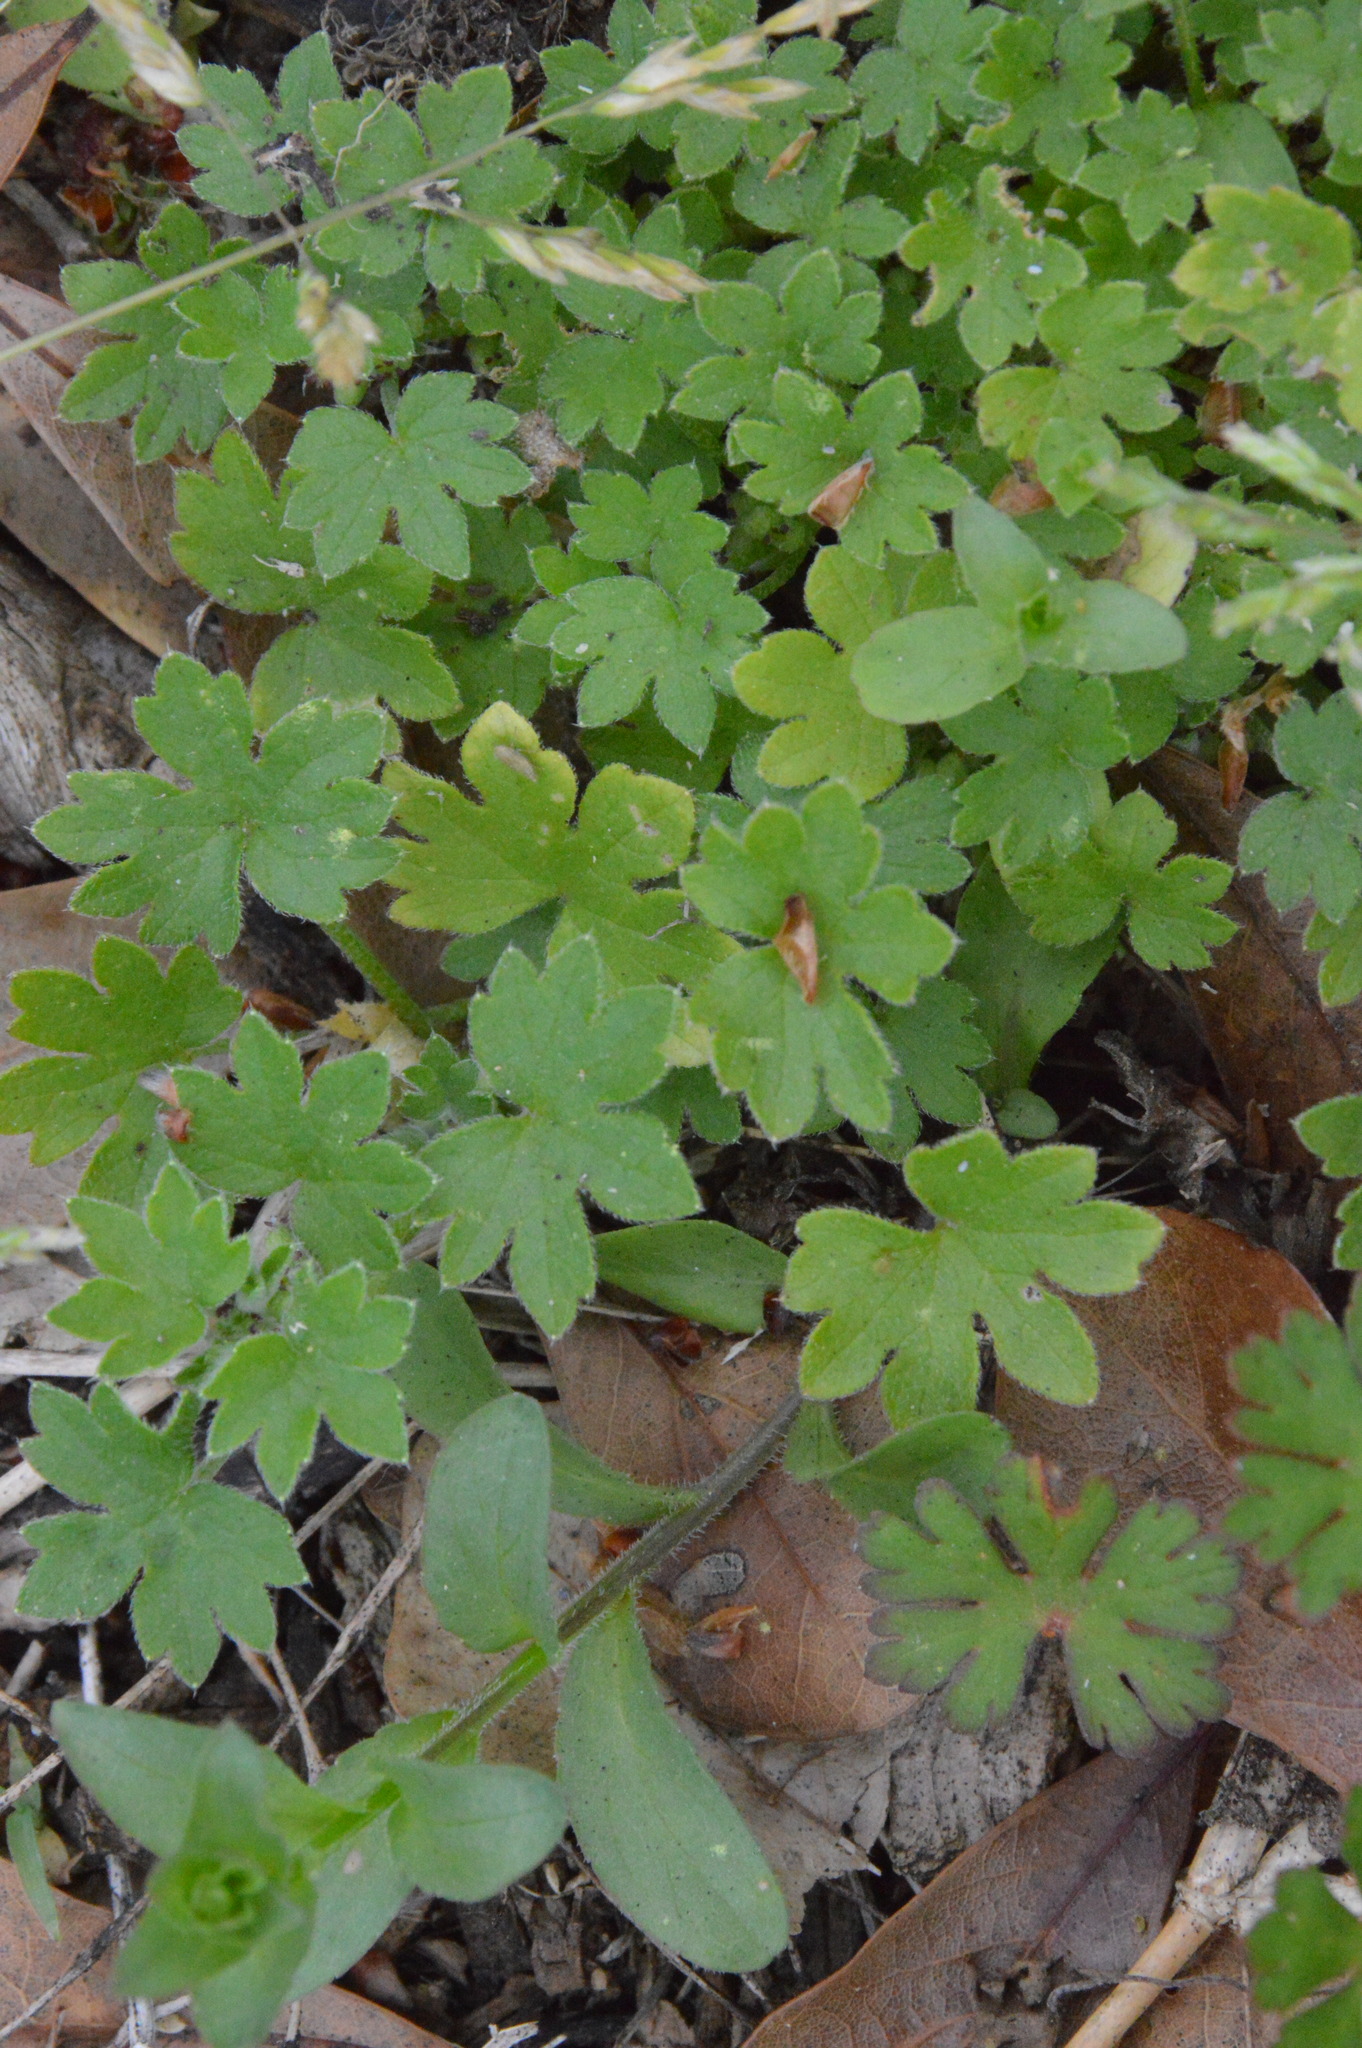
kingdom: Plantae
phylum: Tracheophyta
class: Magnoliopsida
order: Apiales
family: Apiaceae
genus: Bowlesia
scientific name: Bowlesia incana
